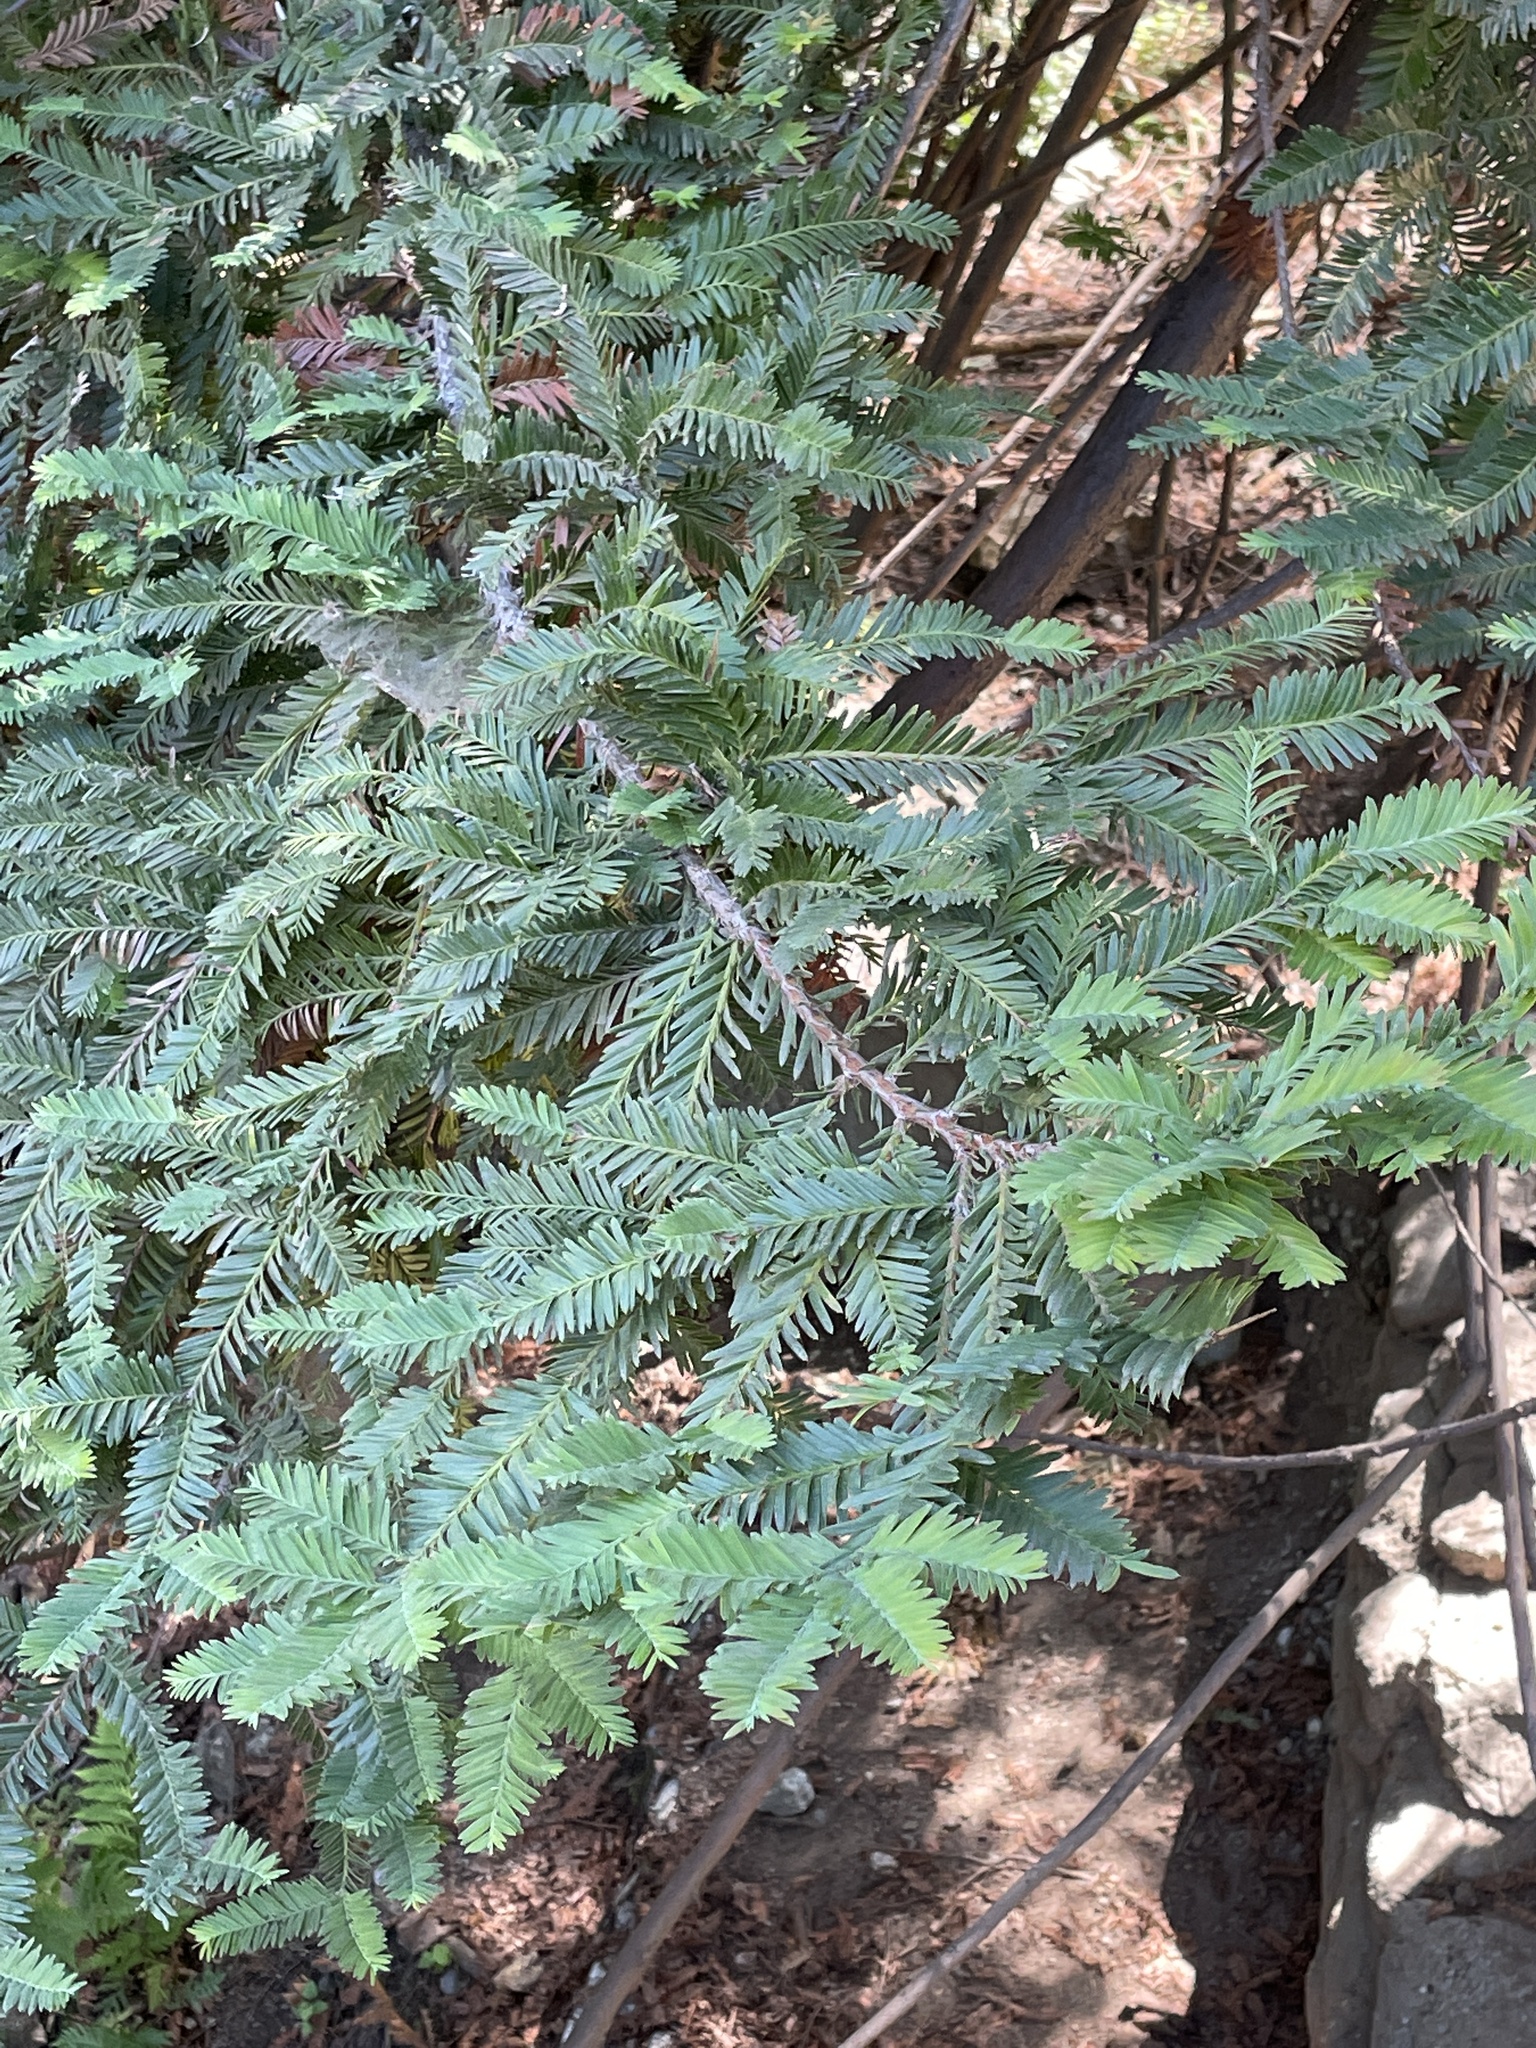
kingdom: Plantae
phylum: Tracheophyta
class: Pinopsida
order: Pinales
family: Cupressaceae
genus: Sequoia
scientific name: Sequoia sempervirens
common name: Coast redwood
